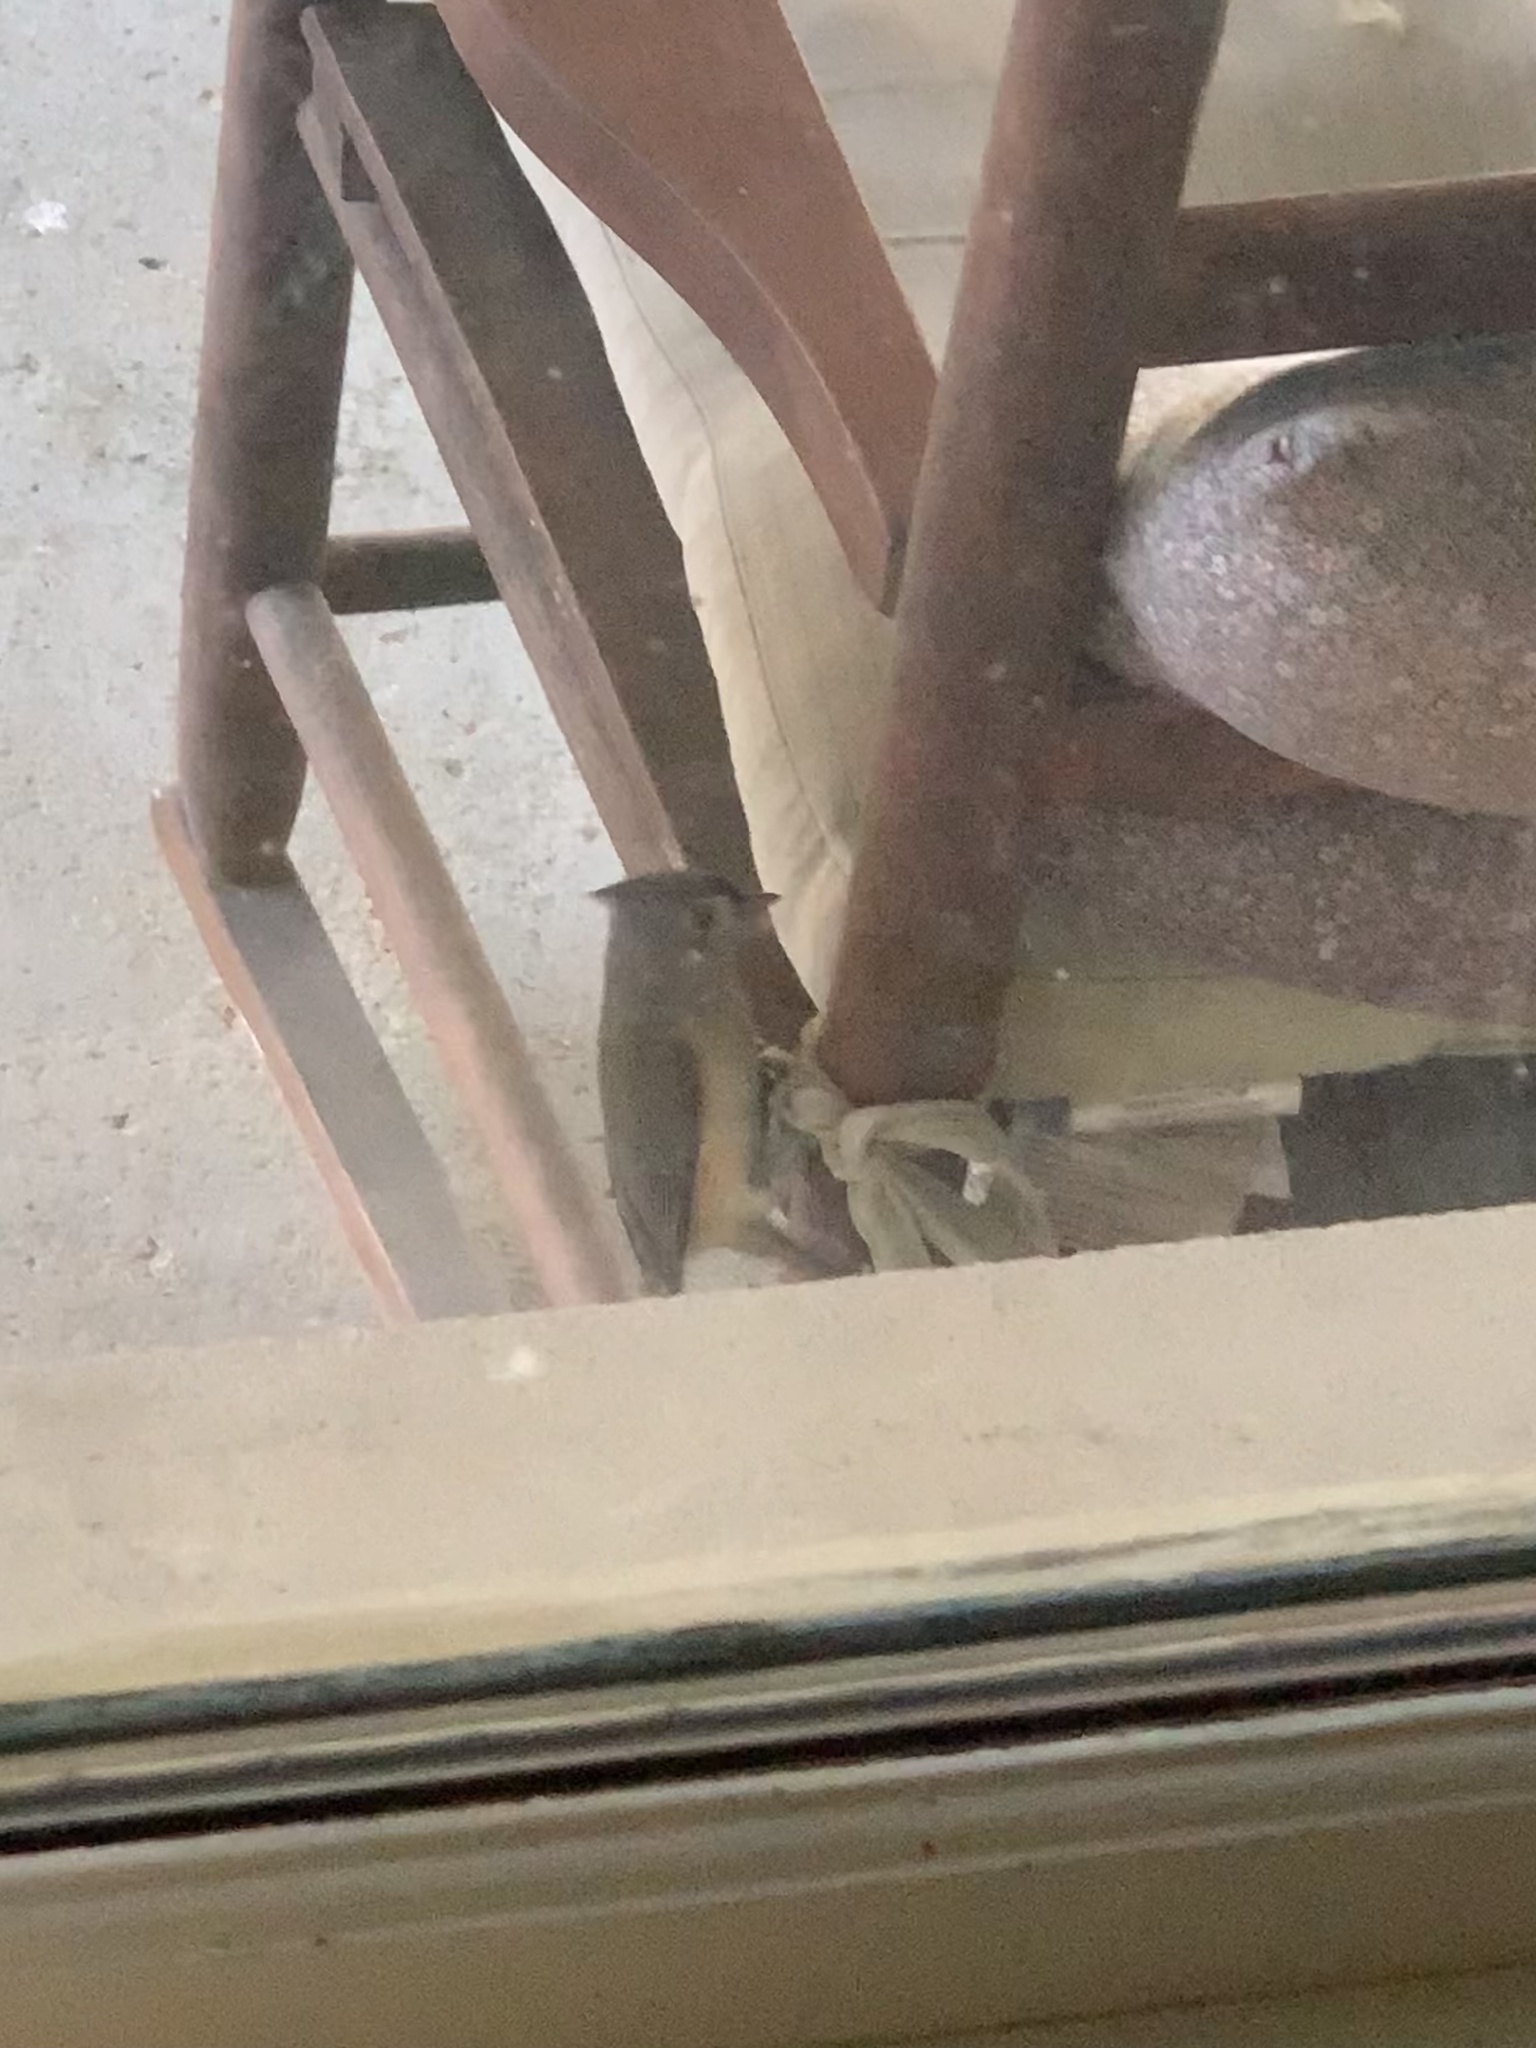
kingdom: Animalia
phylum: Chordata
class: Aves
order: Passeriformes
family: Paridae
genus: Baeolophus
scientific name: Baeolophus bicolor
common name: Tufted titmouse
